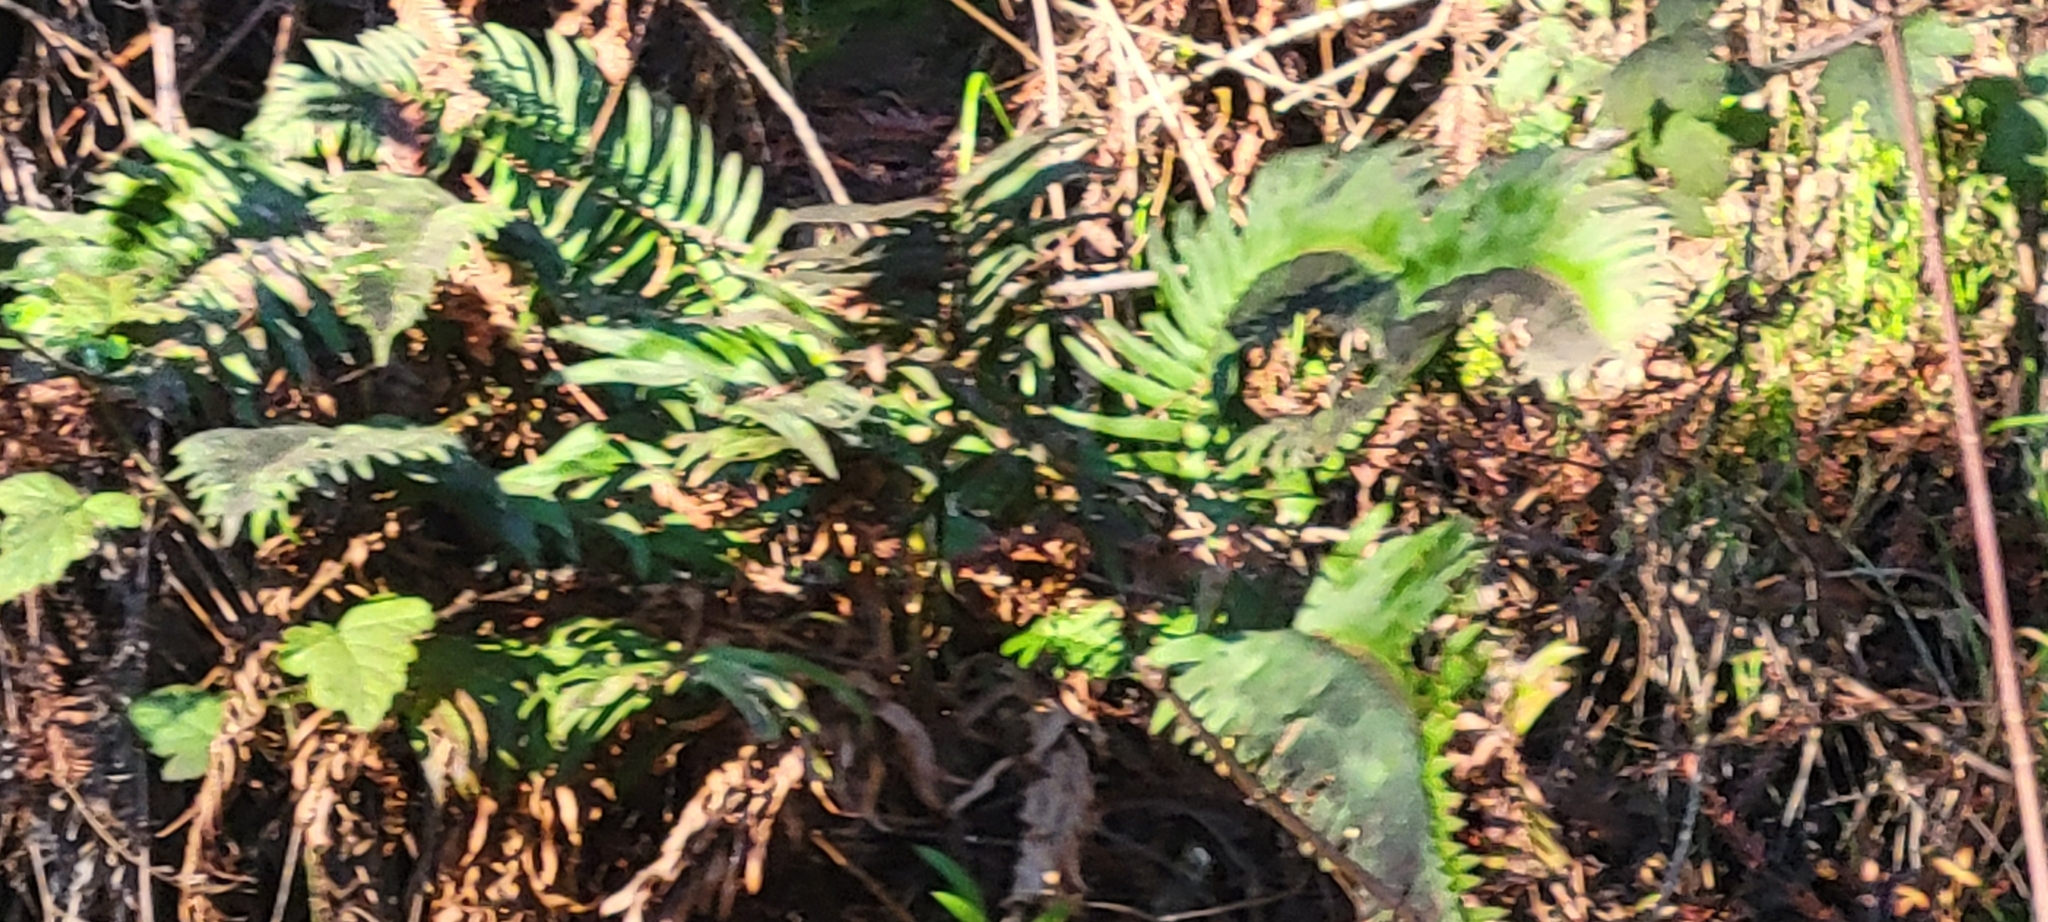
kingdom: Plantae
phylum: Tracheophyta
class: Polypodiopsida
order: Polypodiales
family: Dryopteridaceae
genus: Polystichum
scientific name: Polystichum munitum
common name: Western sword-fern
